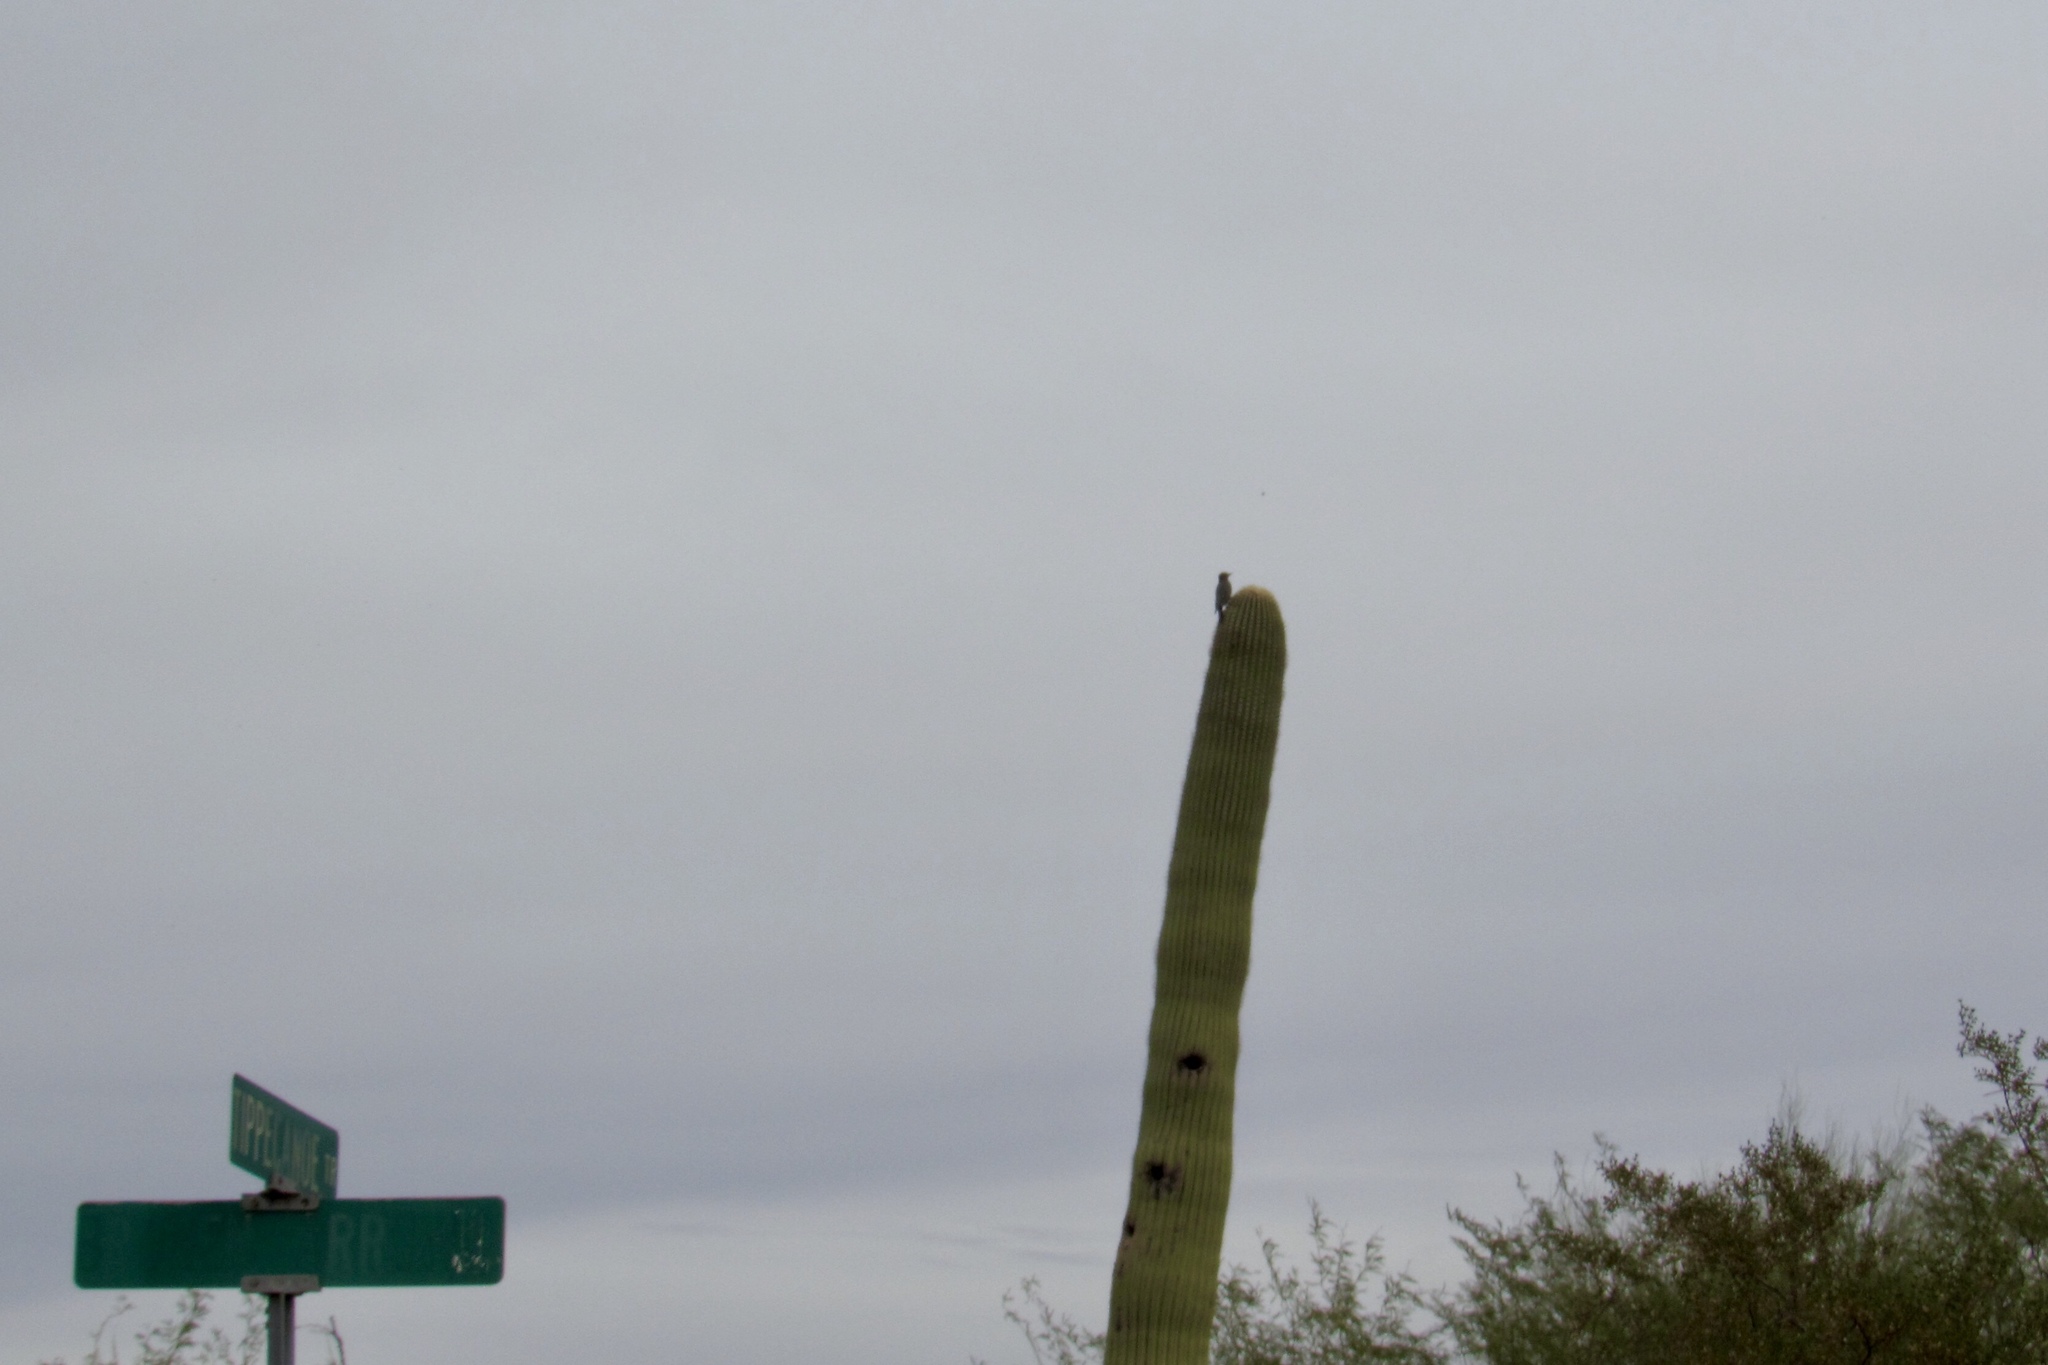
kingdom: Animalia
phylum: Chordata
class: Aves
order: Piciformes
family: Picidae
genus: Melanerpes
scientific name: Melanerpes uropygialis
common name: Gila woodpecker
